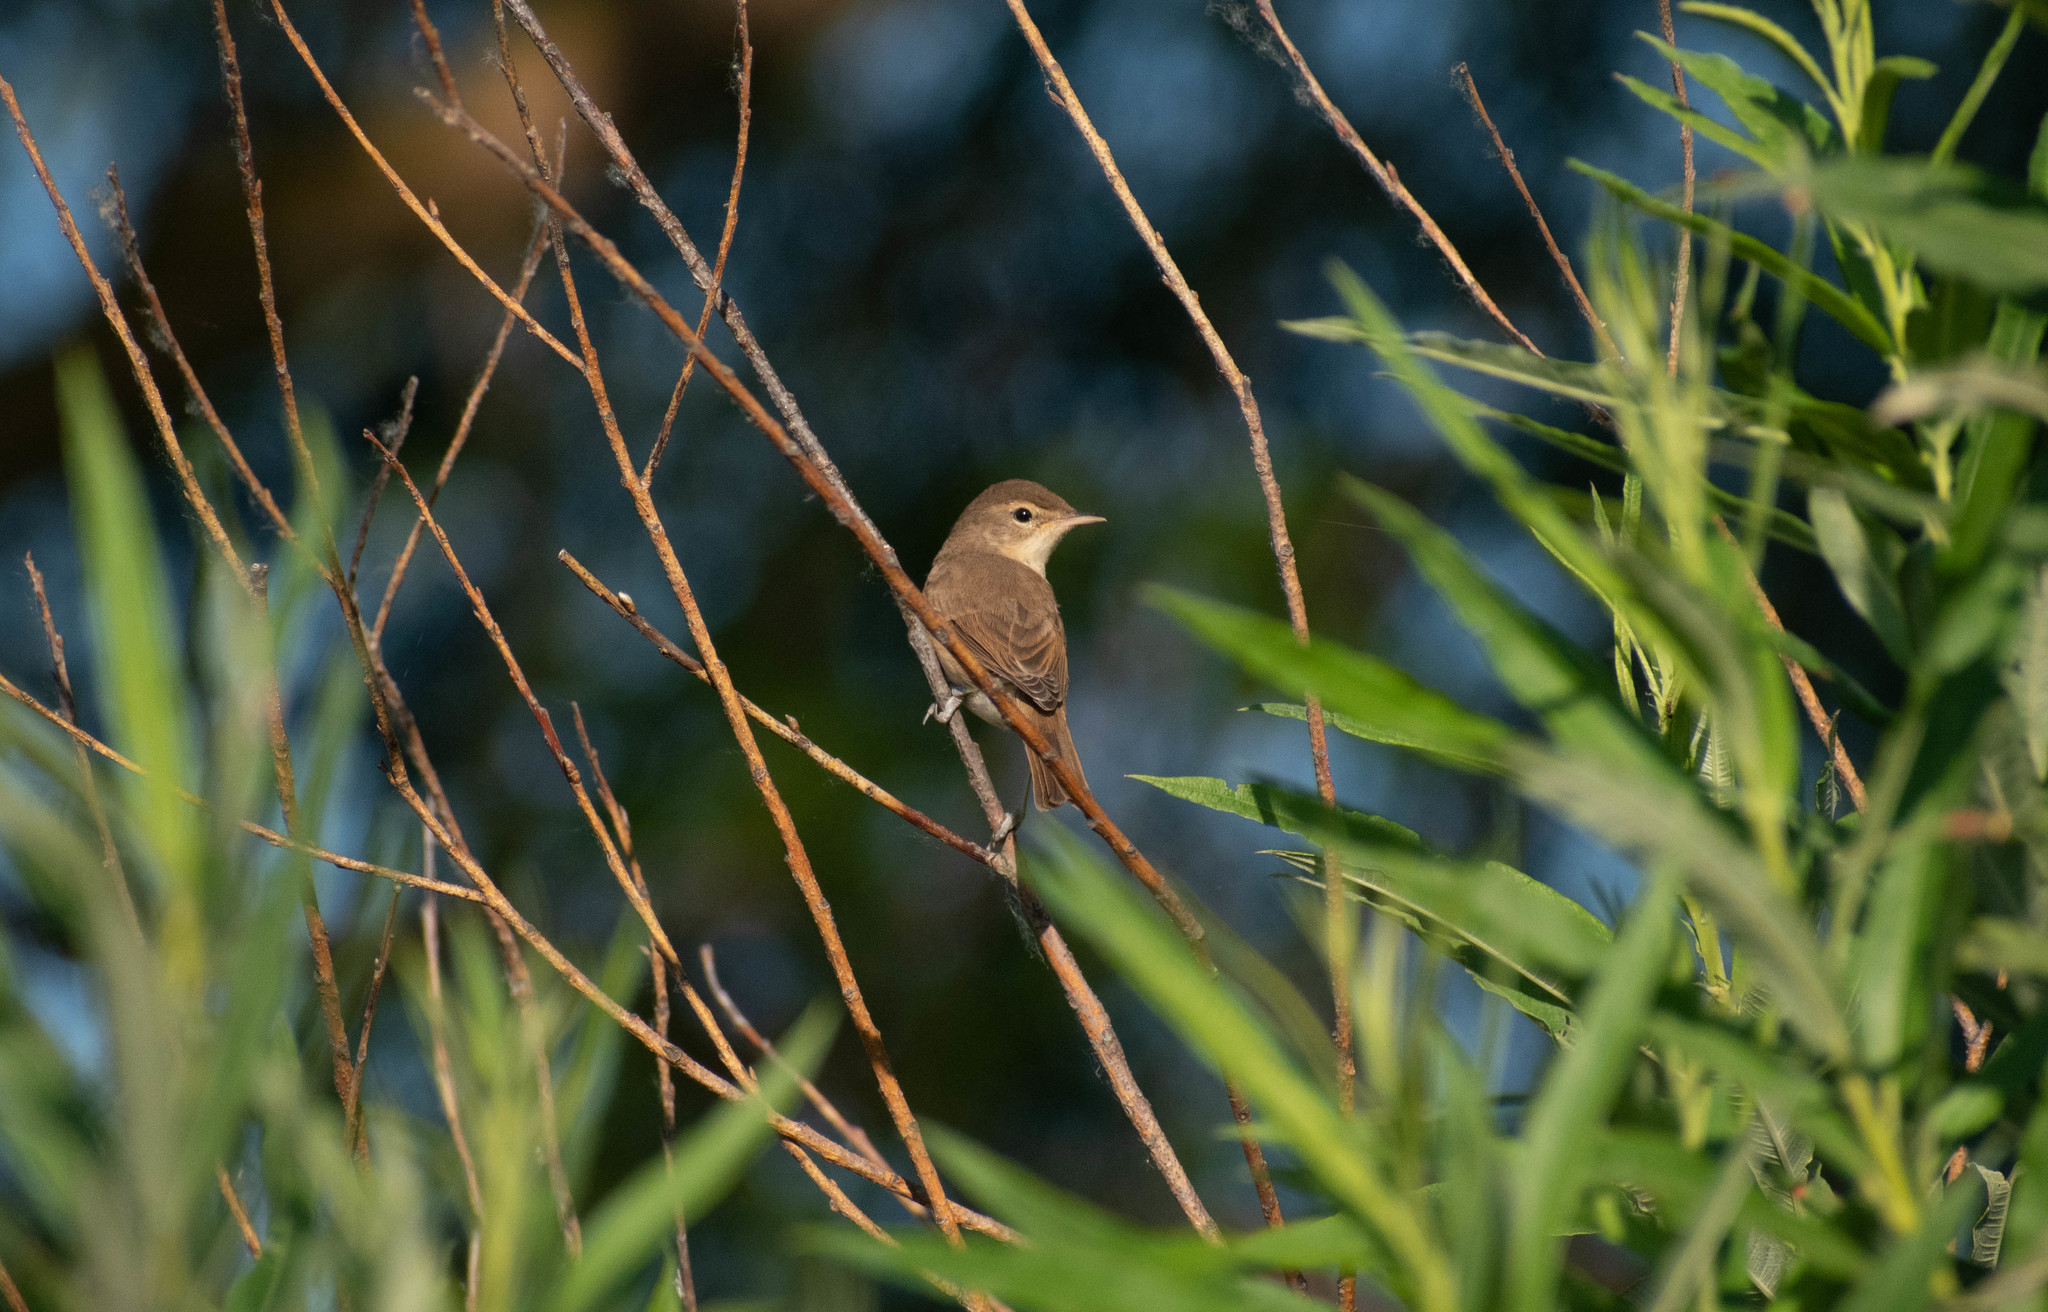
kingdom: Animalia
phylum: Chordata
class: Aves
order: Passeriformes
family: Acrocephalidae
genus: Iduna
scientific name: Iduna caligata
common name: Booted warbler
